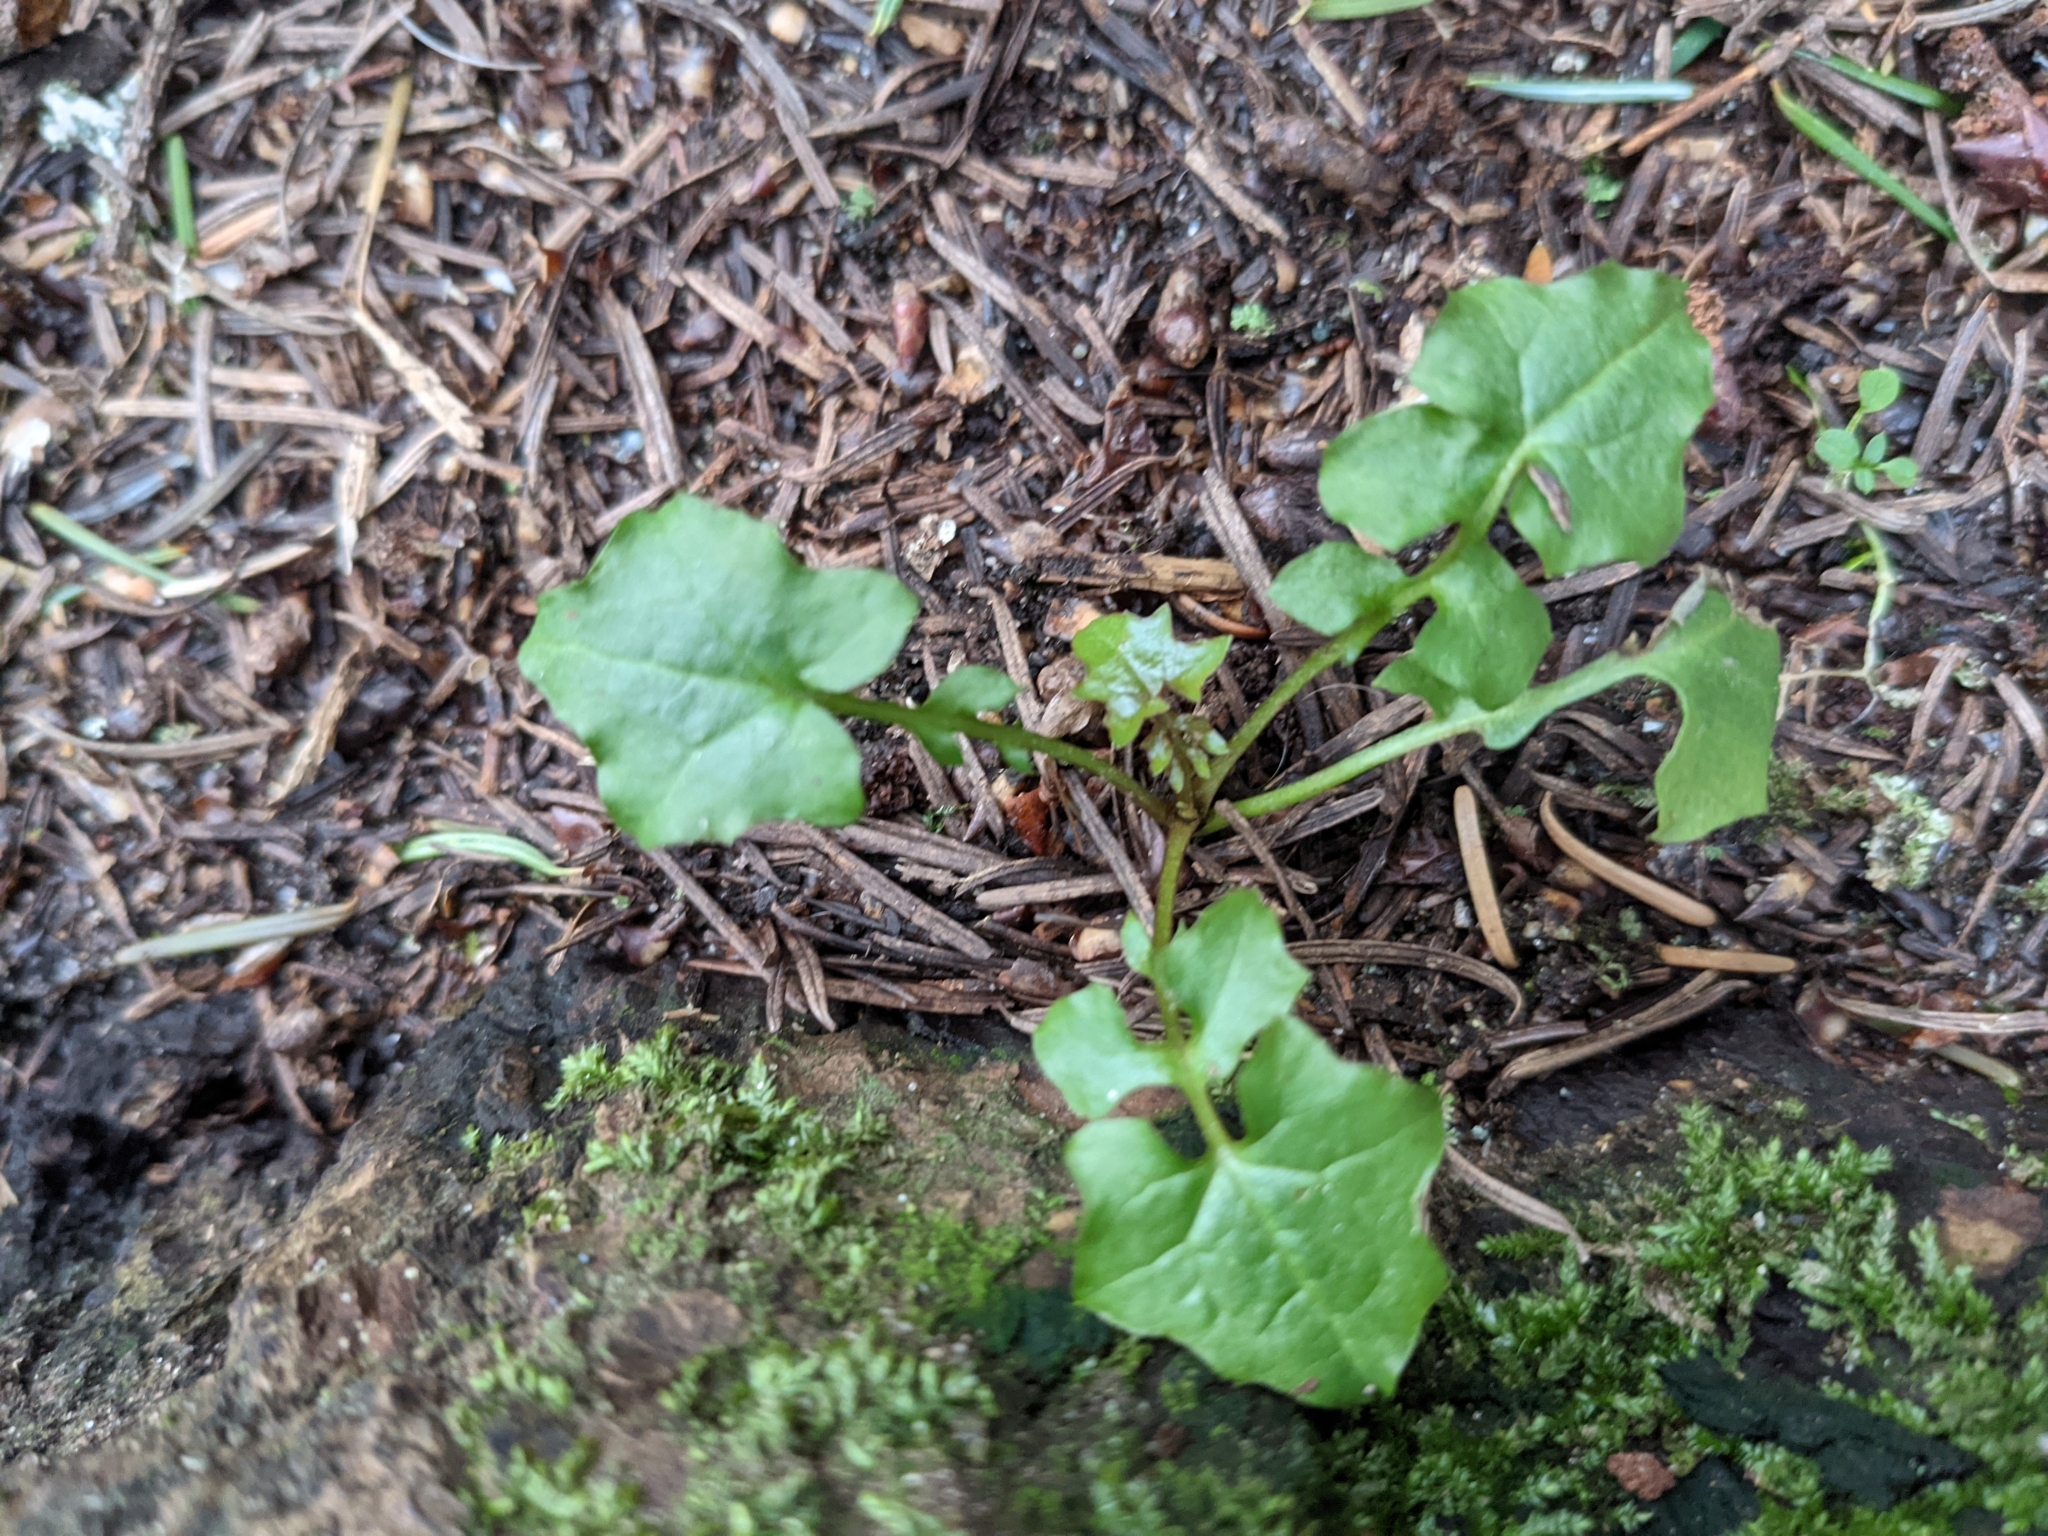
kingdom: Plantae
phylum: Tracheophyta
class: Magnoliopsida
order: Asterales
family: Asteraceae
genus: Mycelis
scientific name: Mycelis muralis
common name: Wall lettuce
